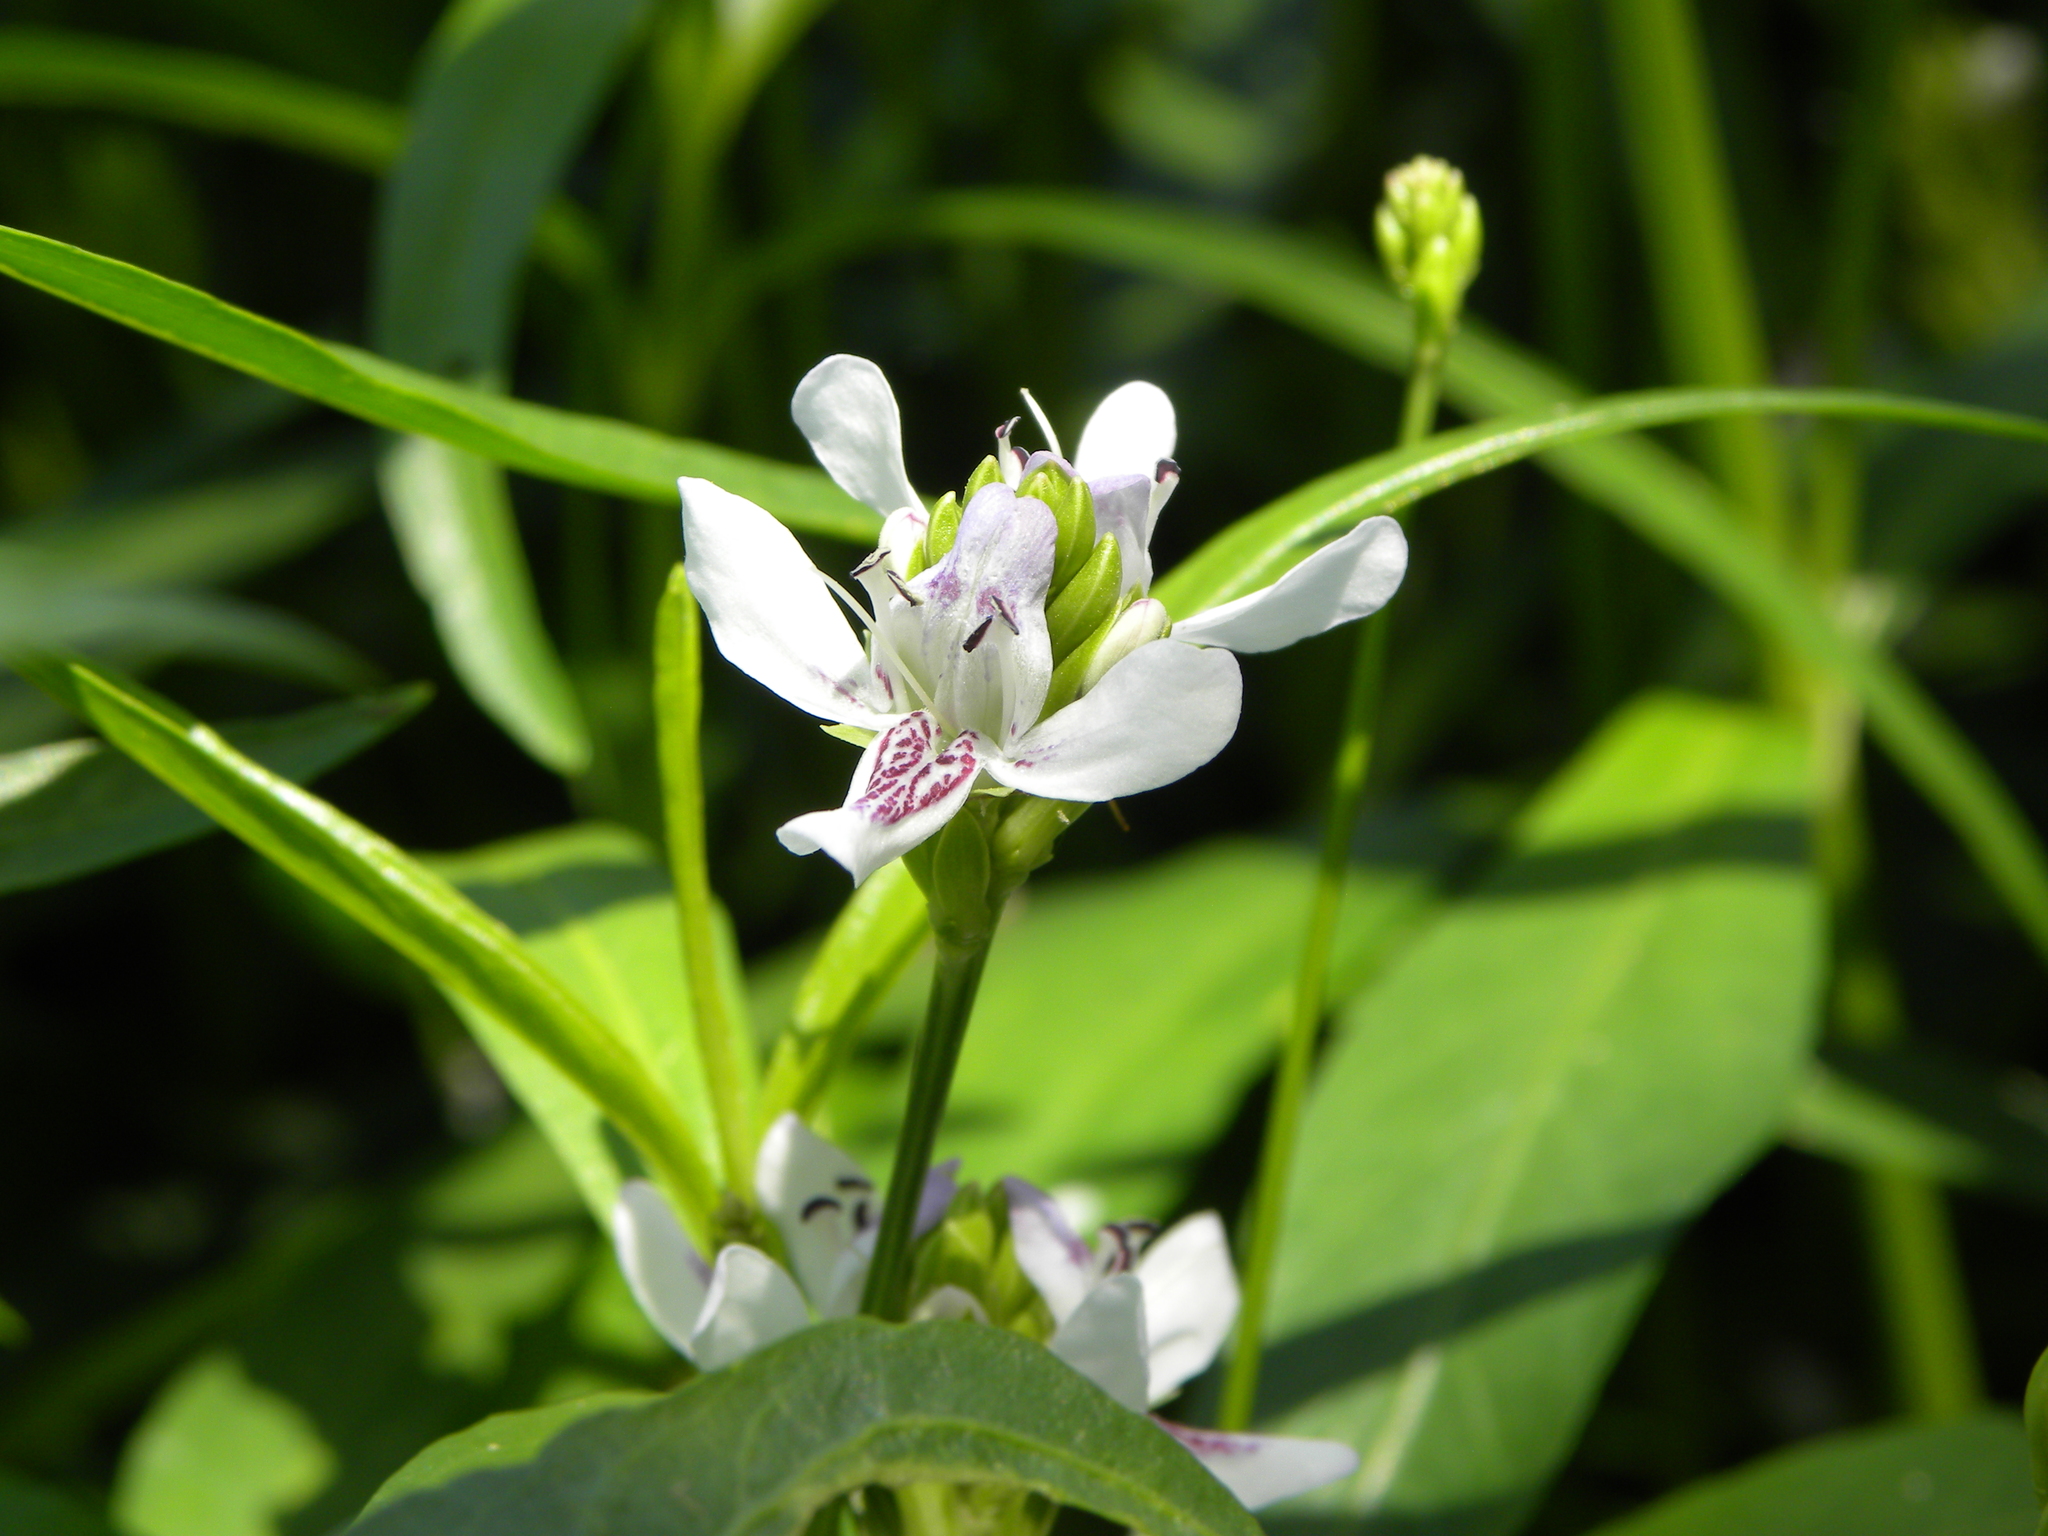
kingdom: Plantae
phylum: Tracheophyta
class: Magnoliopsida
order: Lamiales
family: Acanthaceae
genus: Dianthera
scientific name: Dianthera americana
